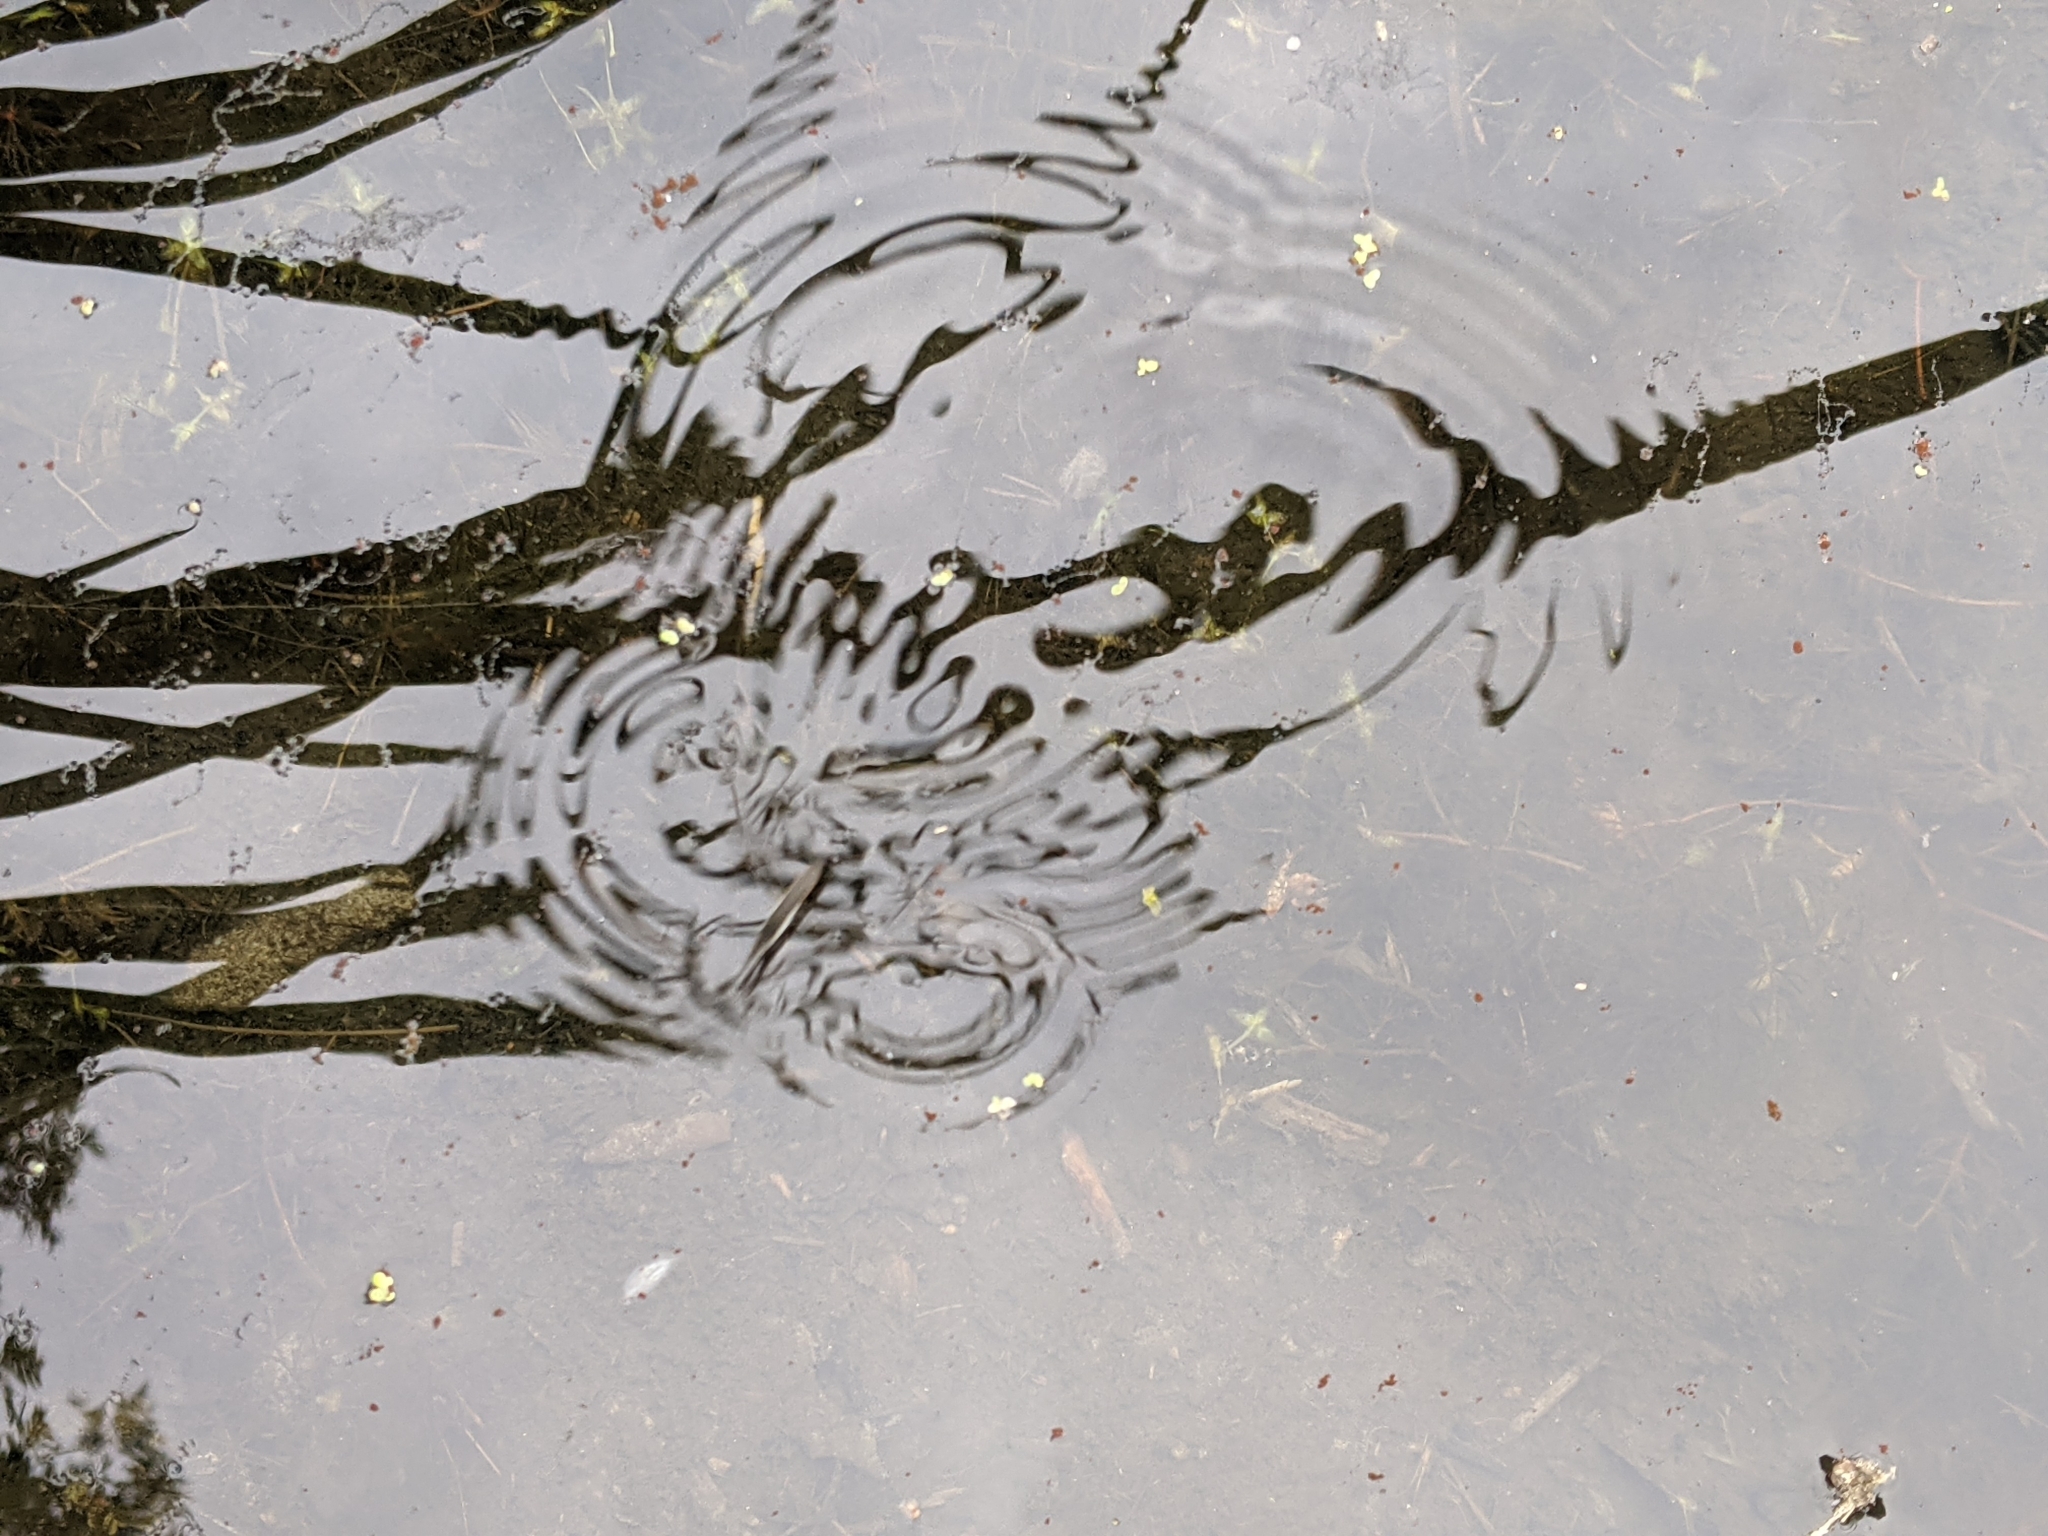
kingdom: Animalia
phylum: Arthropoda
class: Insecta
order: Hemiptera
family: Gerridae
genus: Aquarius
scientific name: Aquarius paludum
